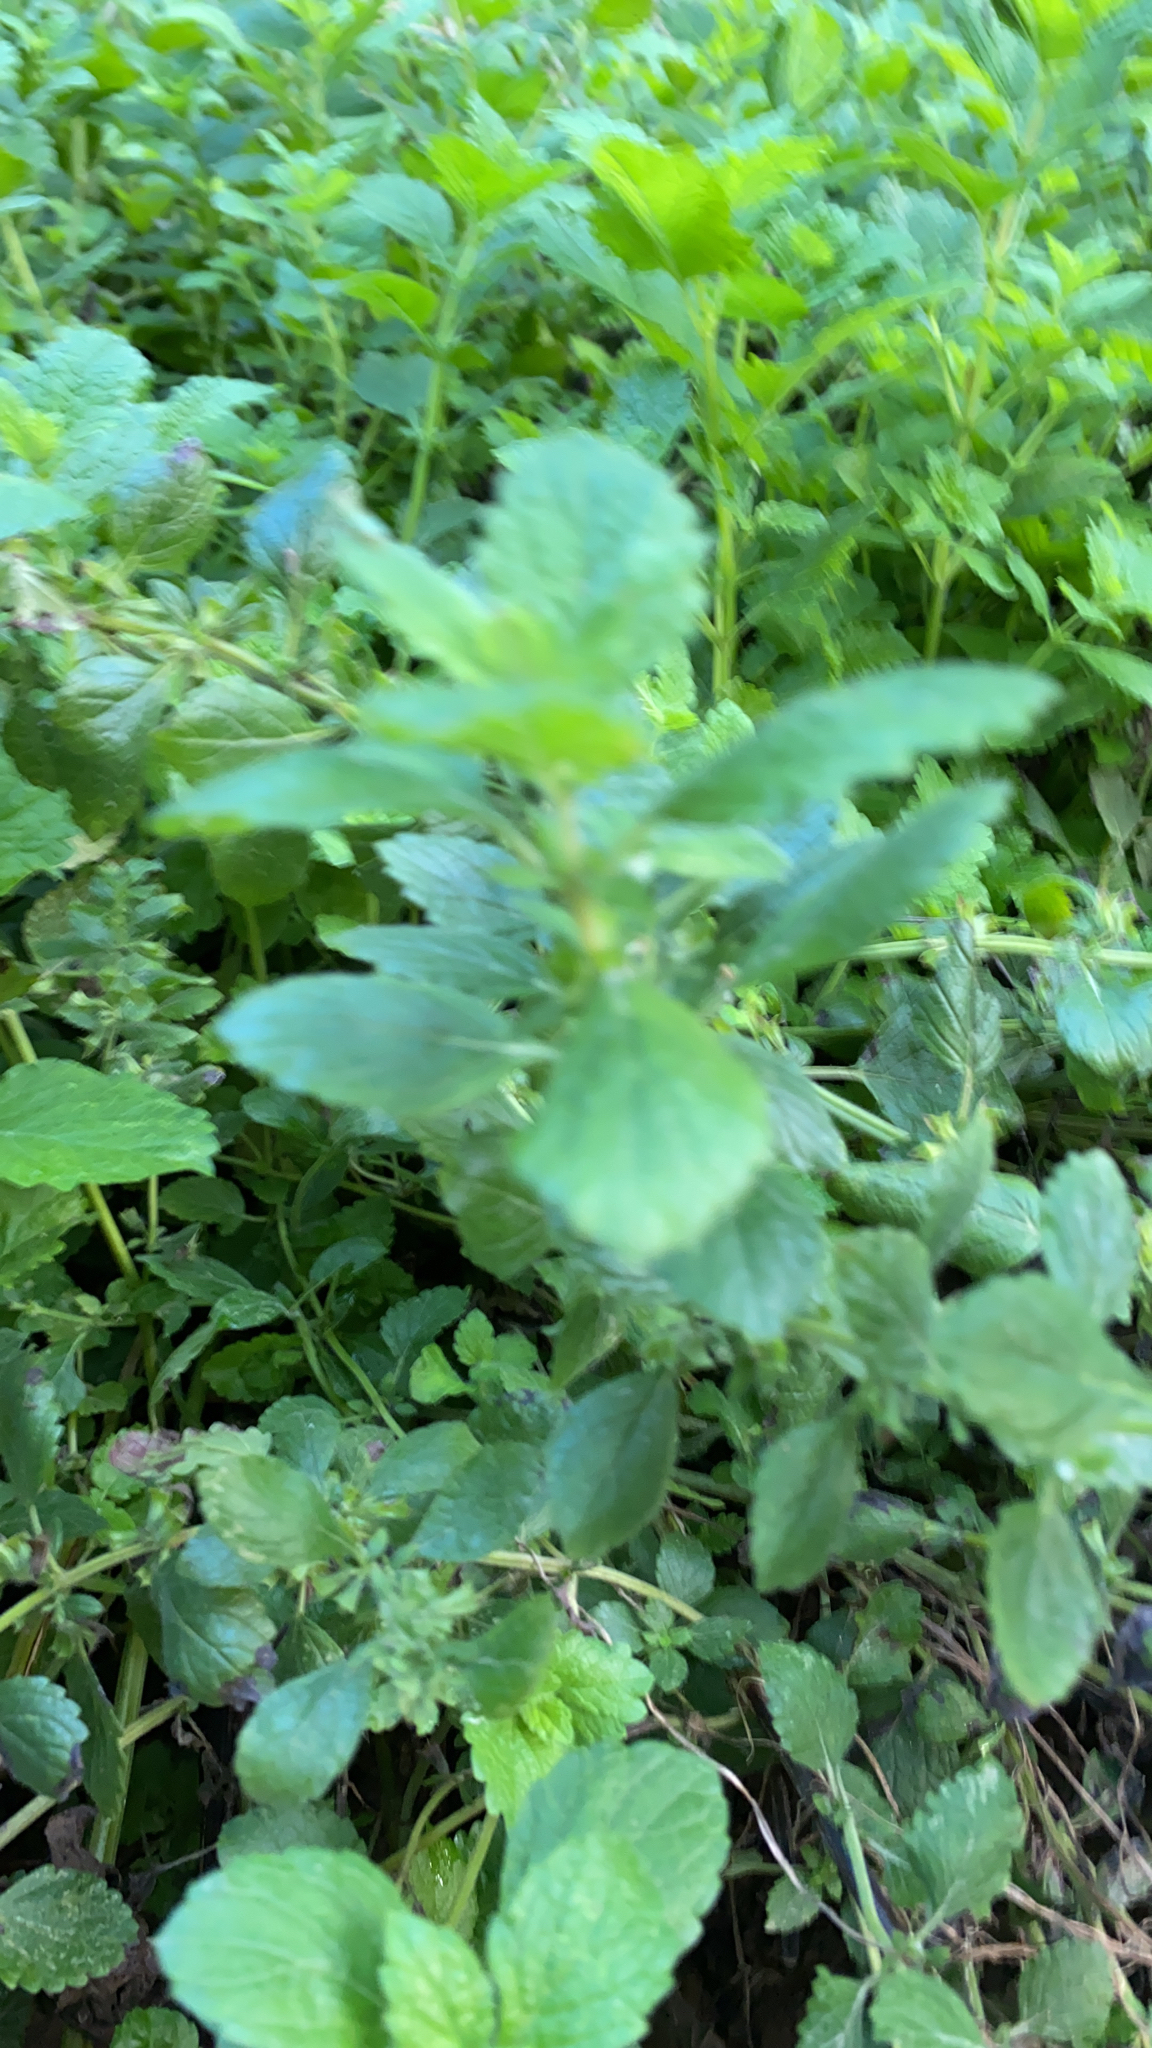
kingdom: Plantae
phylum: Tracheophyta
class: Magnoliopsida
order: Lamiales
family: Lamiaceae
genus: Melissa
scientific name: Melissa officinalis
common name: Balm
